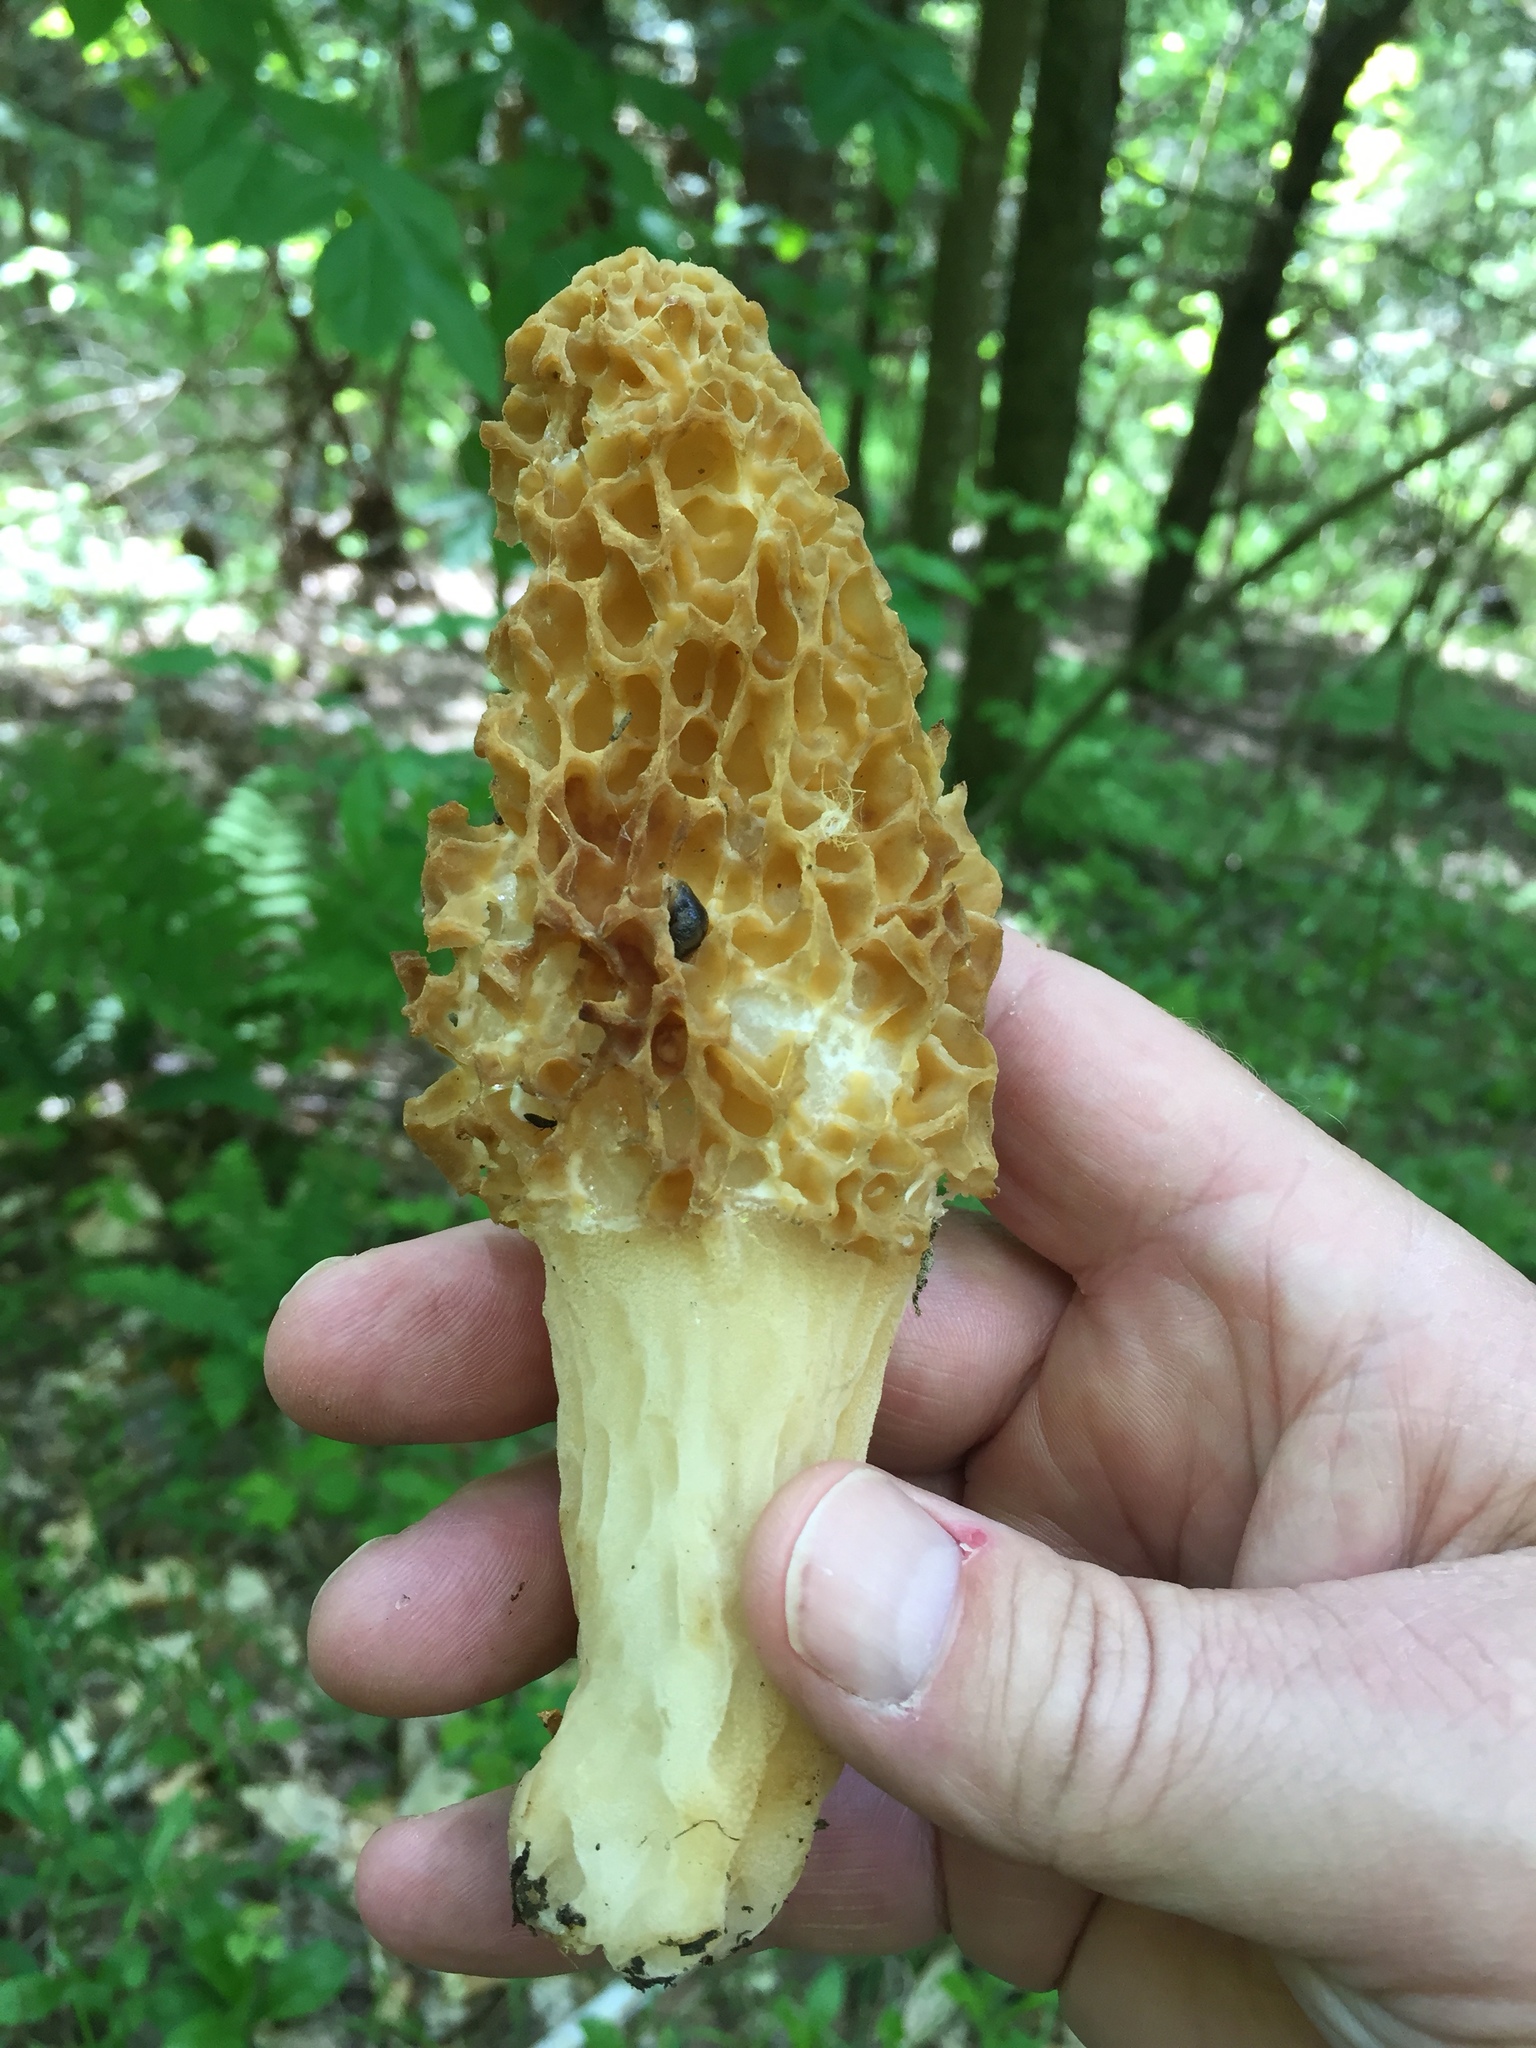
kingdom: Fungi
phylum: Ascomycota
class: Pezizomycetes
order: Pezizales
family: Morchellaceae
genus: Morchella
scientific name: Morchella americana
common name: White morel
